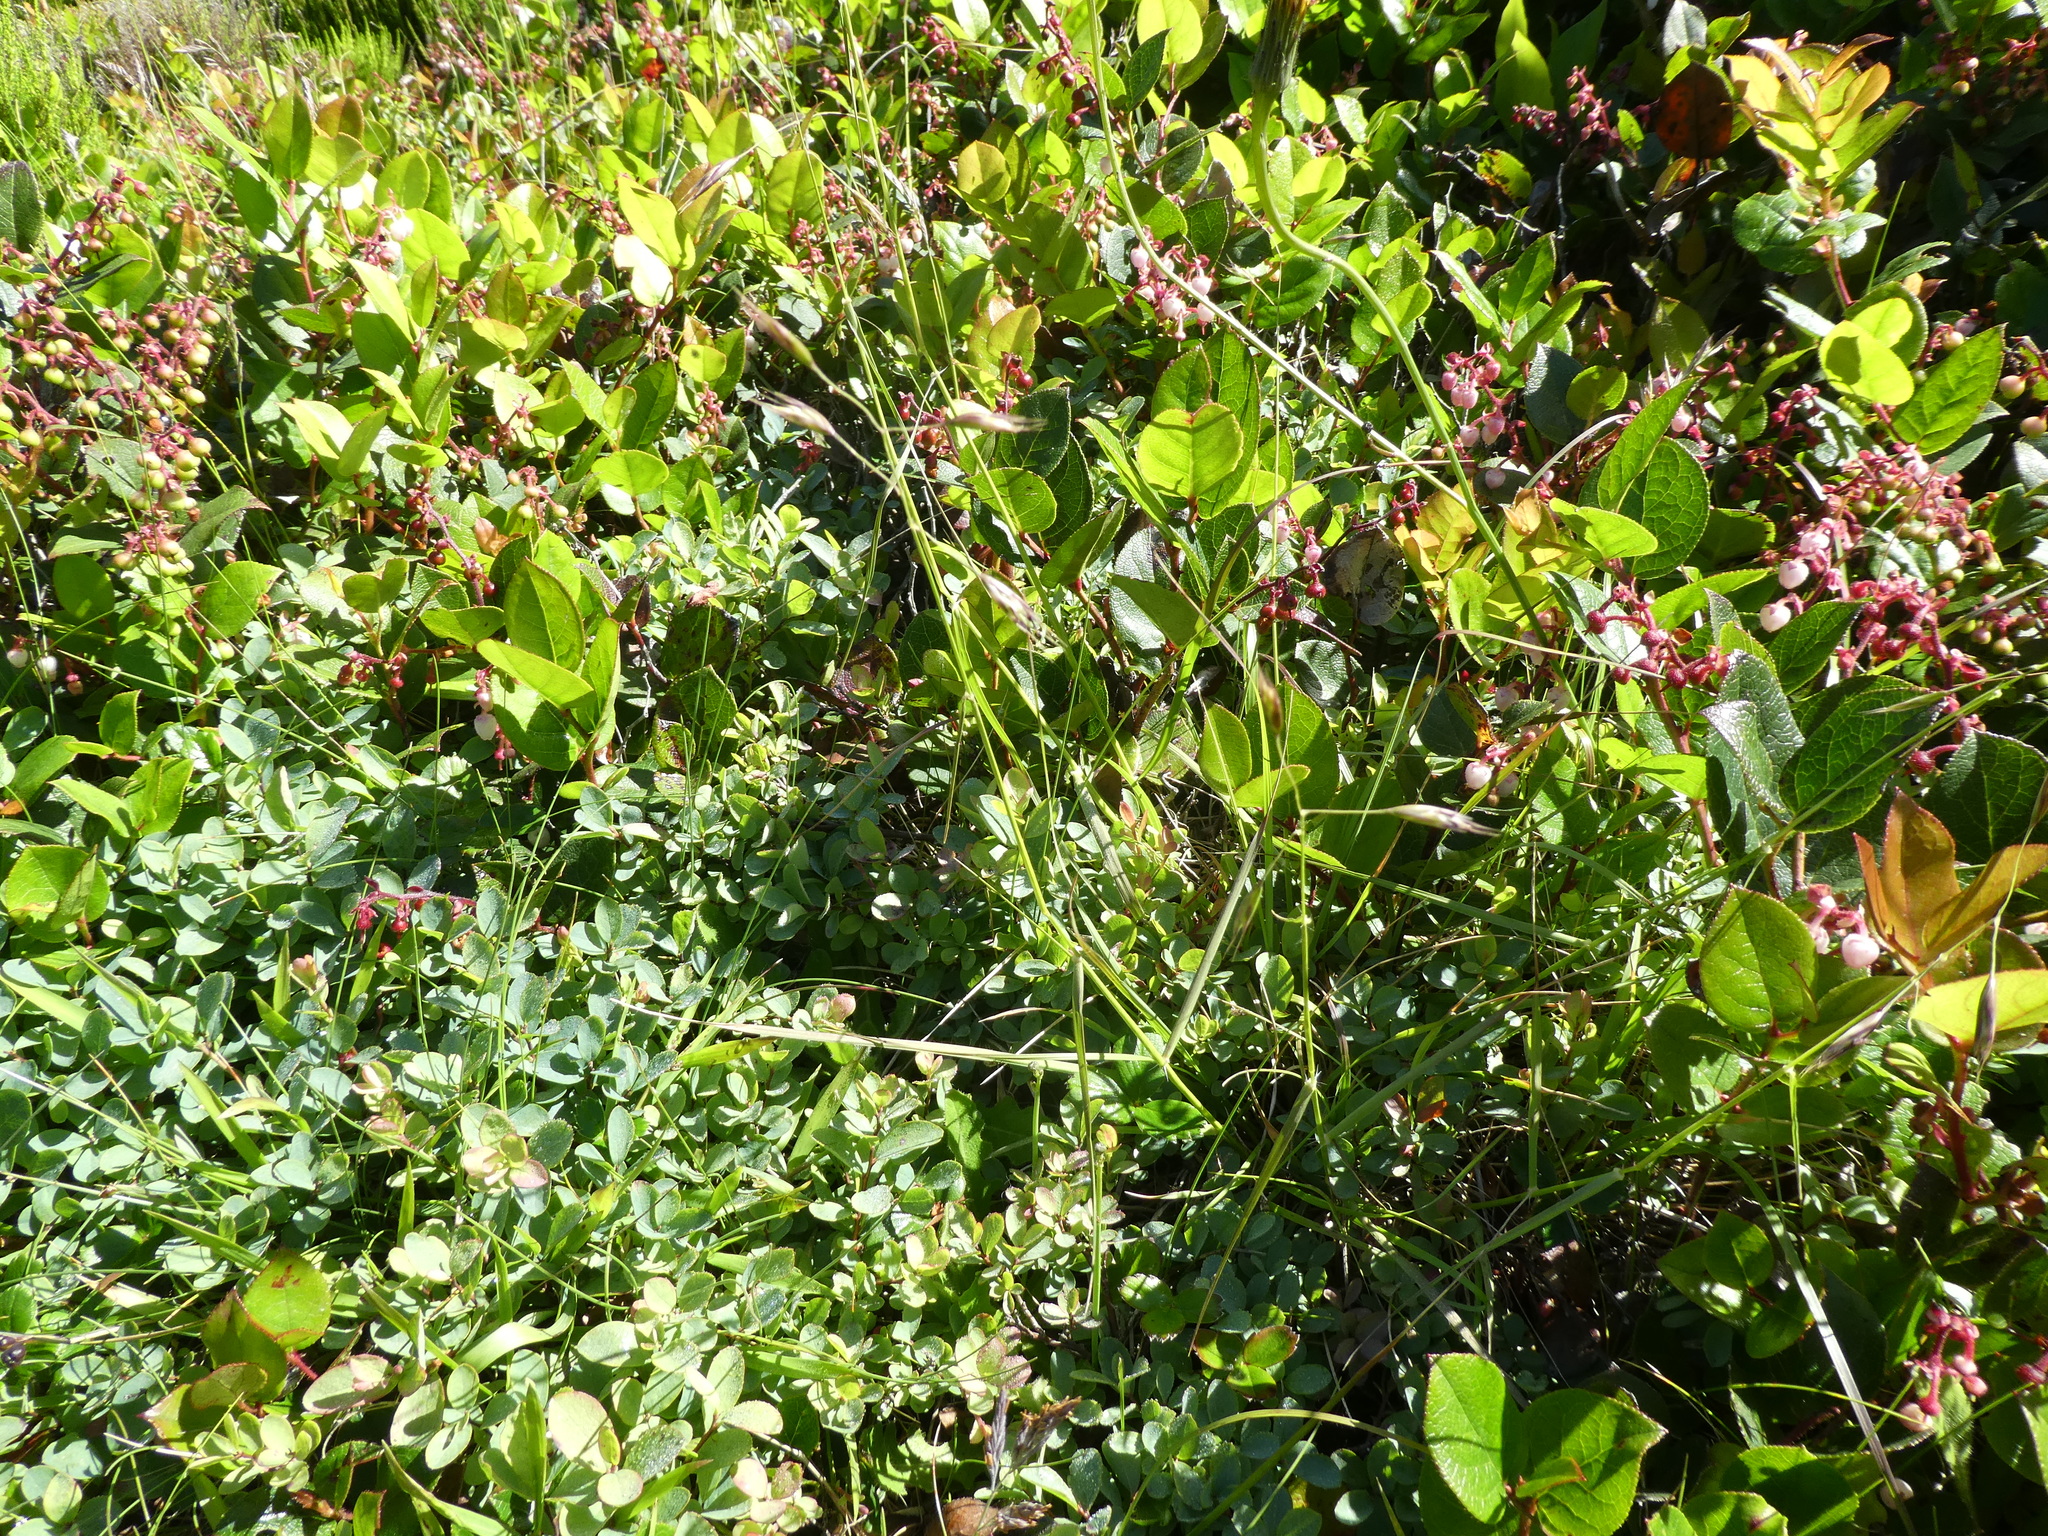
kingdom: Plantae
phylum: Tracheophyta
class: Liliopsida
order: Poales
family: Poaceae
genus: Danthonia
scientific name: Danthonia californica
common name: California oat grass
